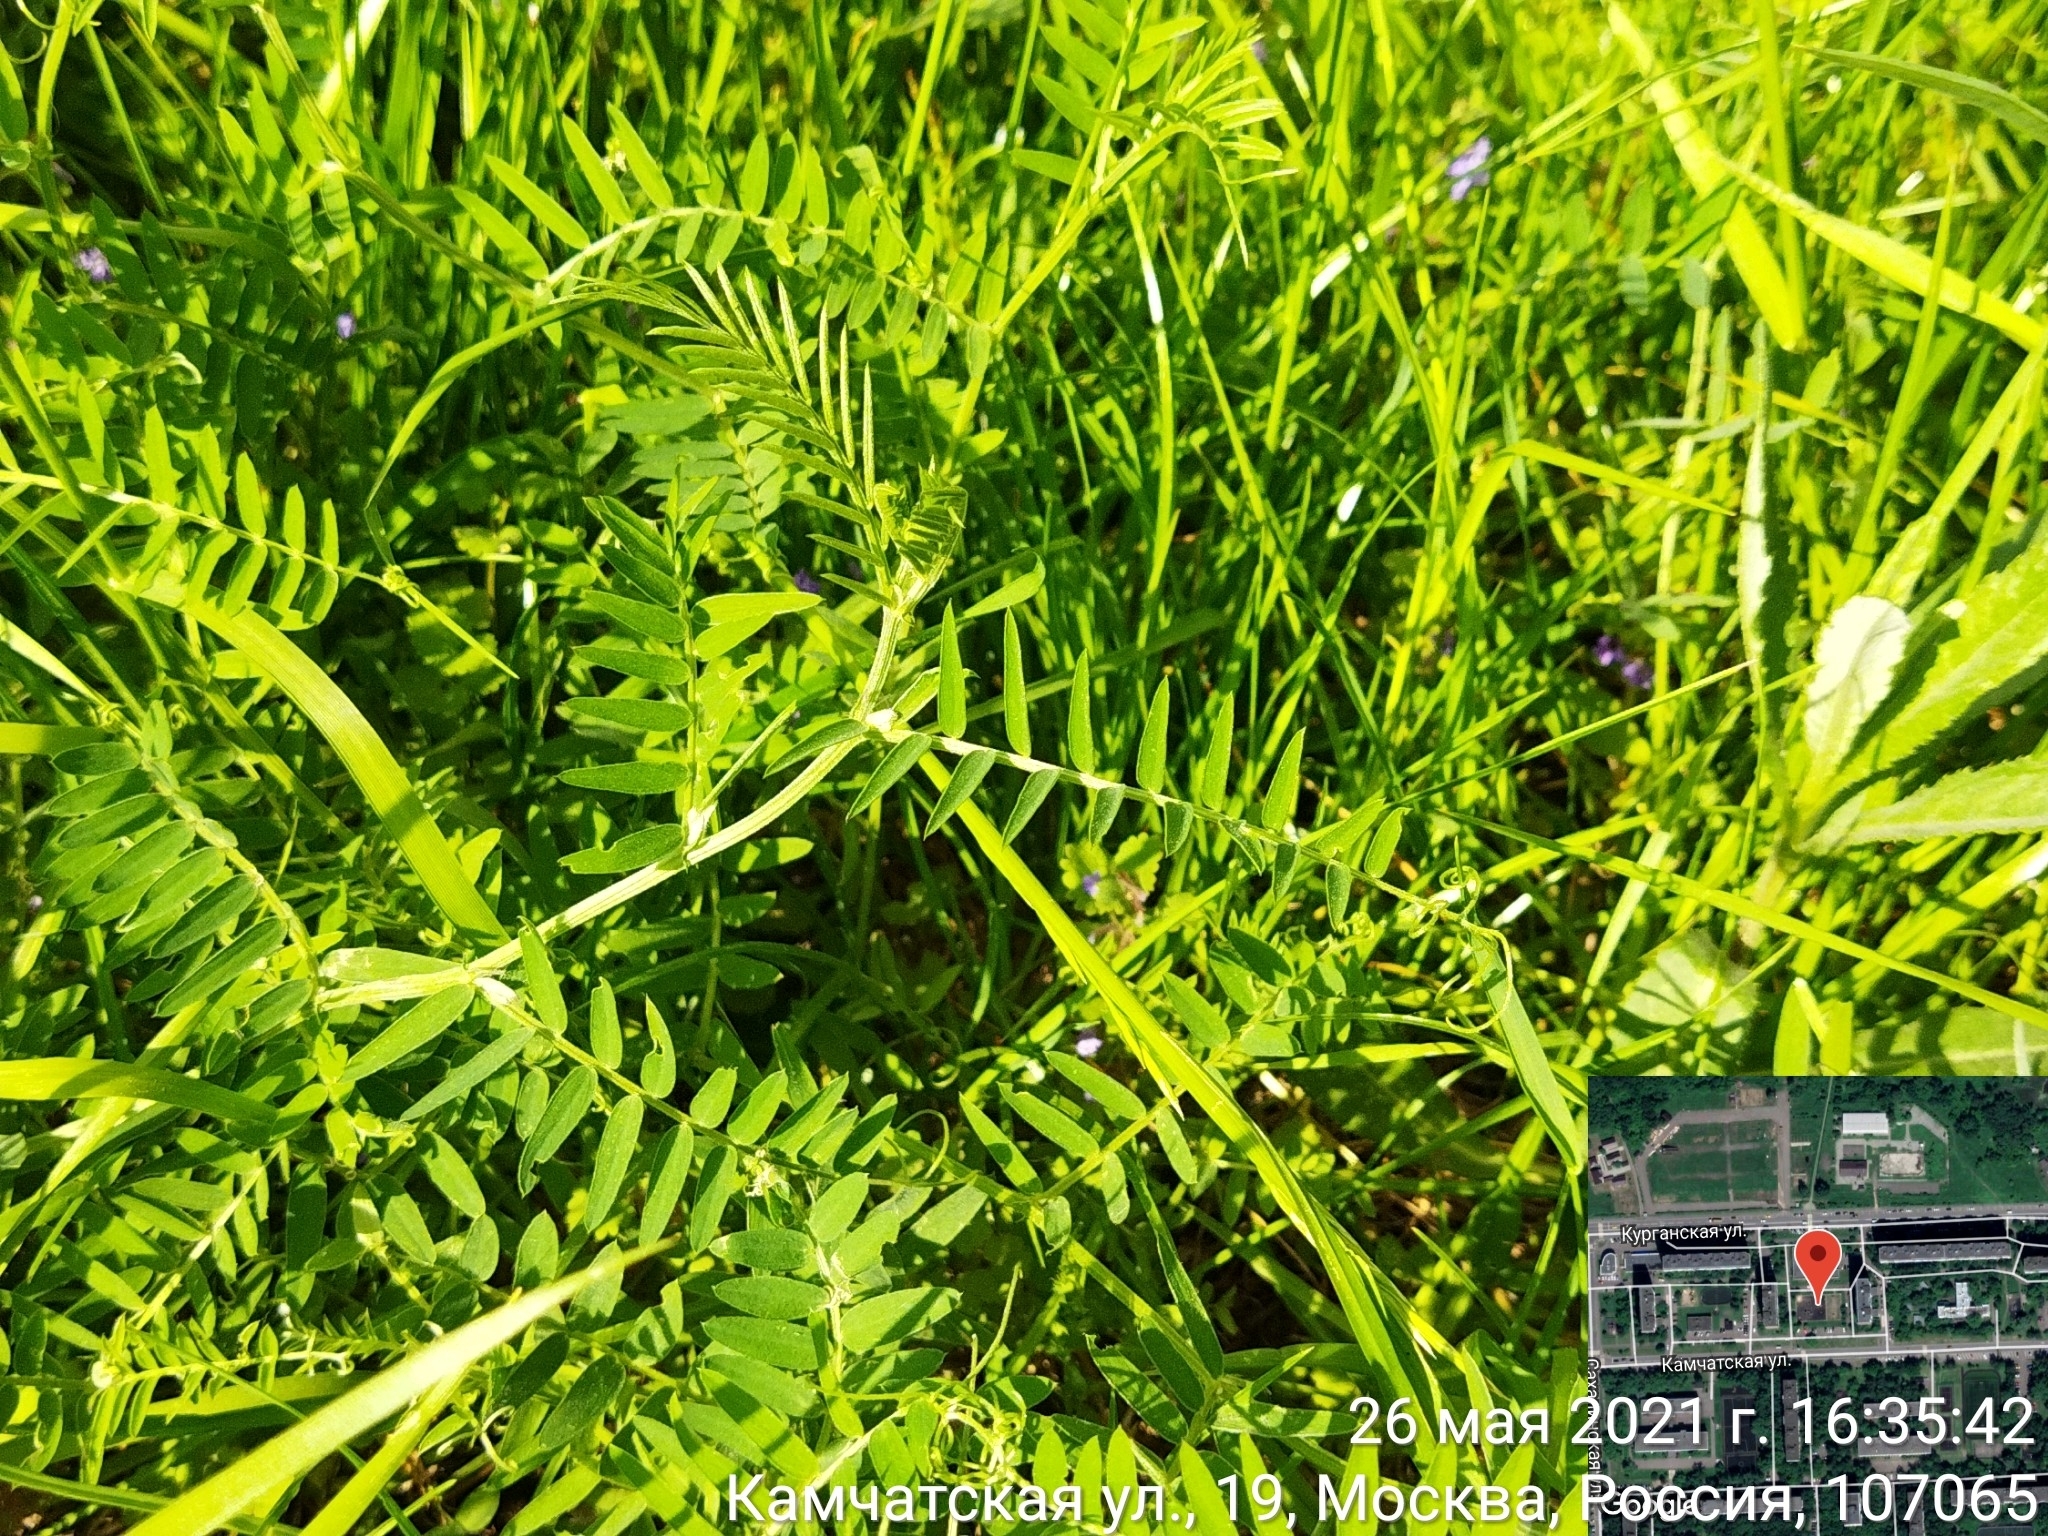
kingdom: Plantae
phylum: Tracheophyta
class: Magnoliopsida
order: Fabales
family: Fabaceae
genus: Vicia
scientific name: Vicia cracca
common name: Bird vetch
